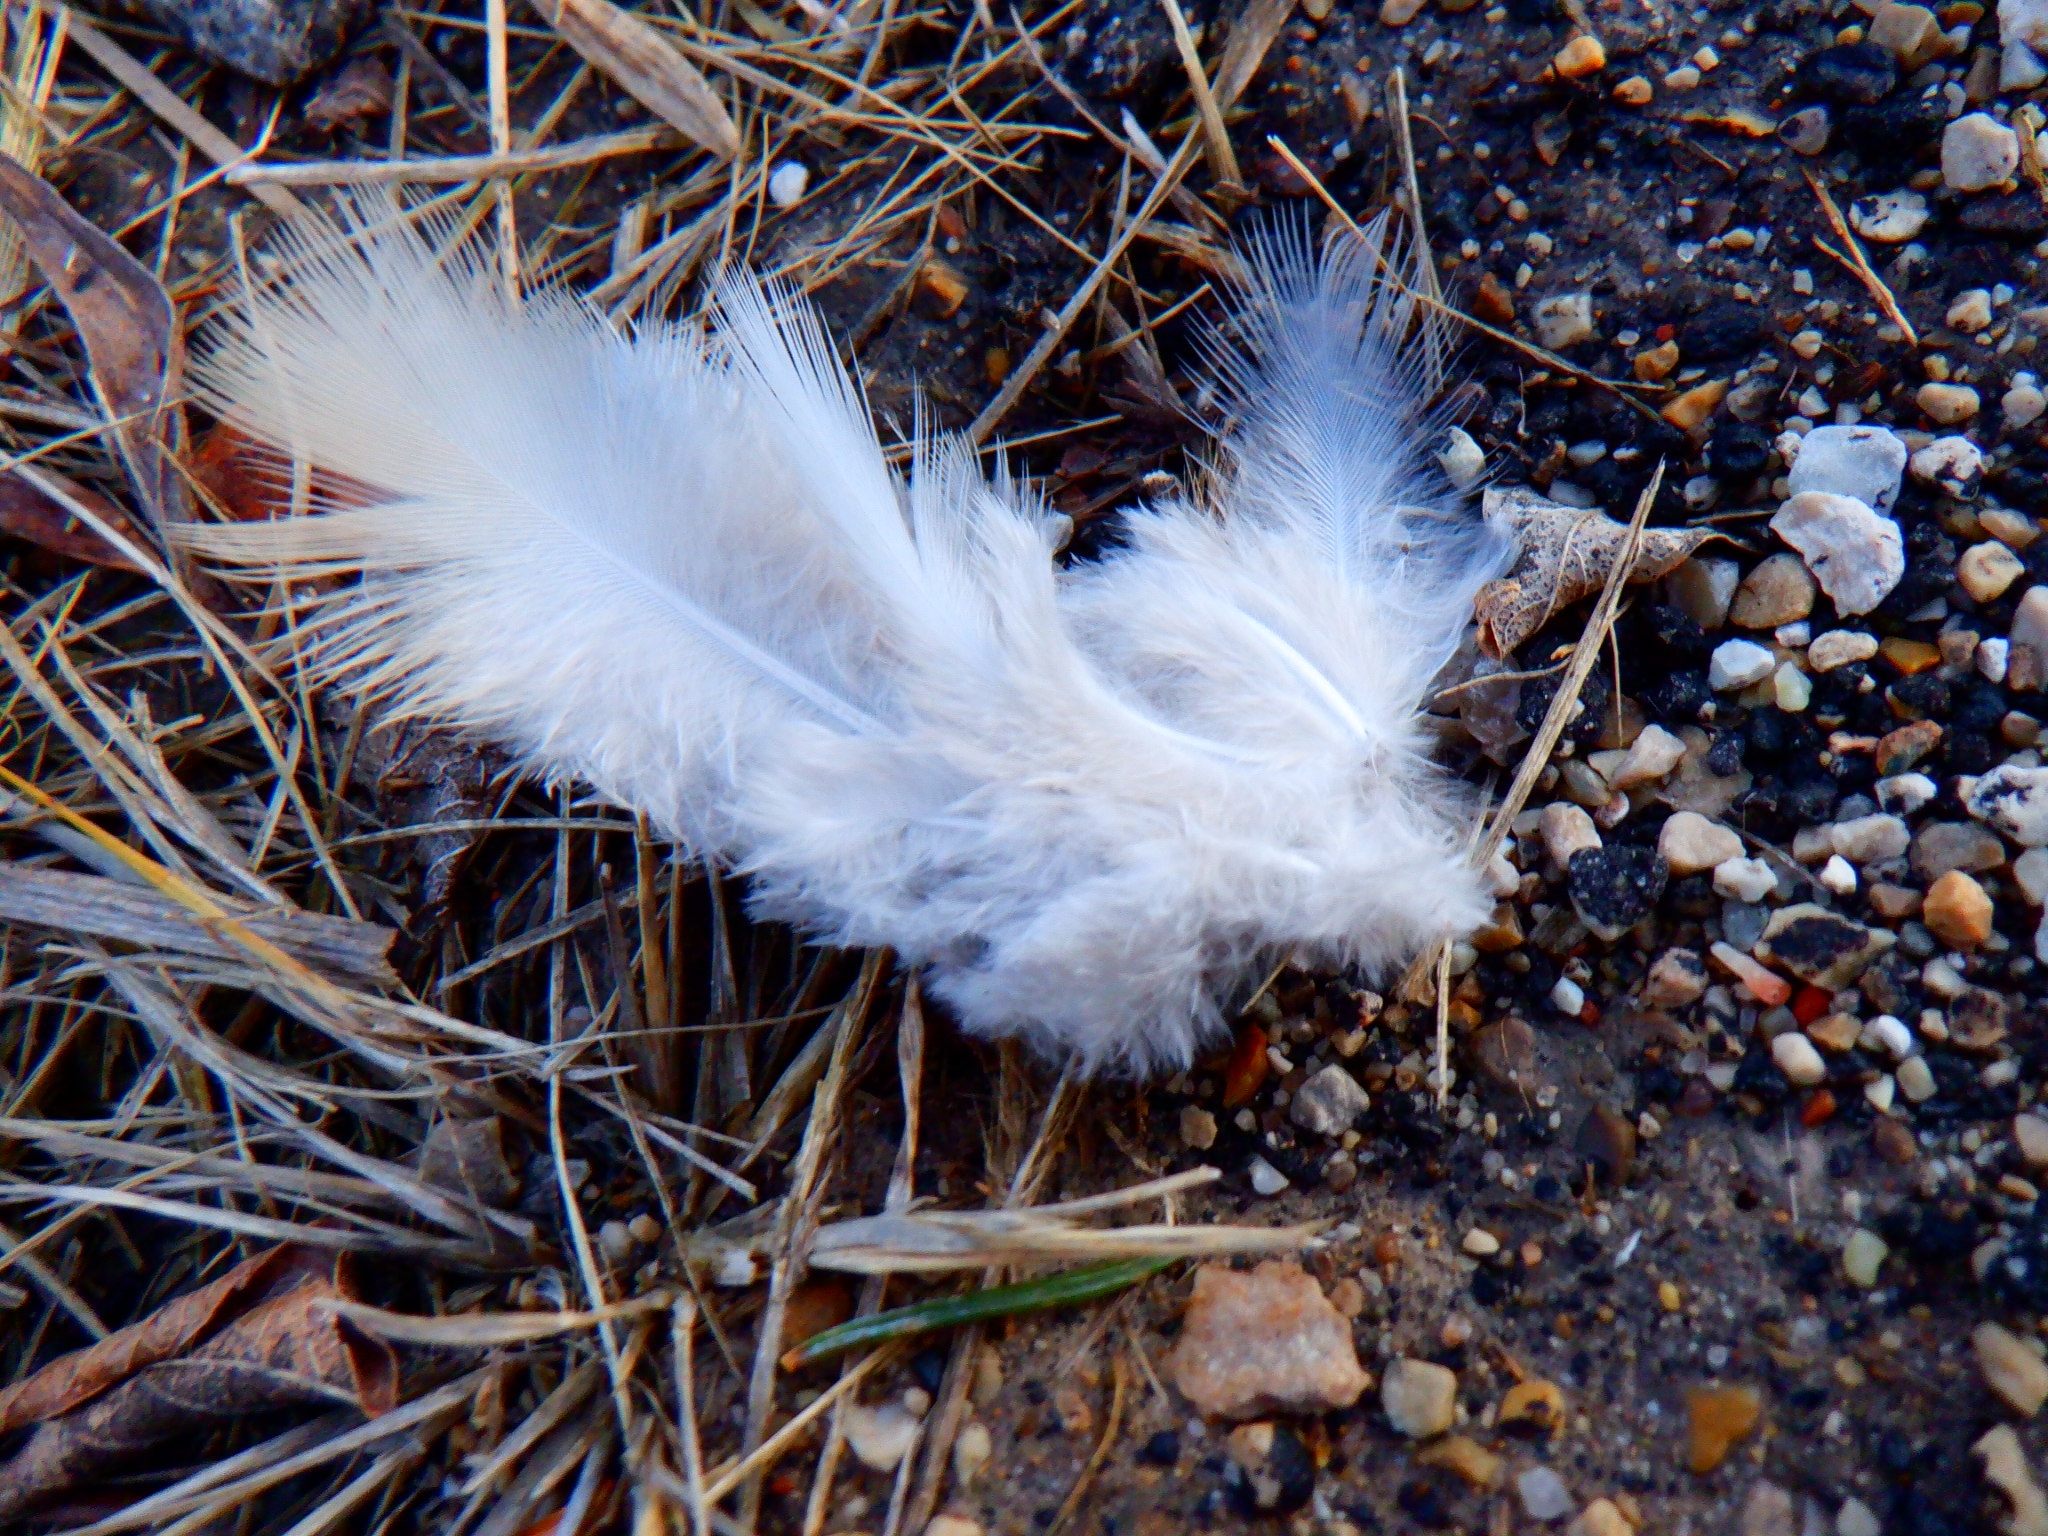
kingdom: Animalia
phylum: Chordata
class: Aves
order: Columbiformes
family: Columbidae
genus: Zenaida
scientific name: Zenaida macroura
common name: Mourning dove
